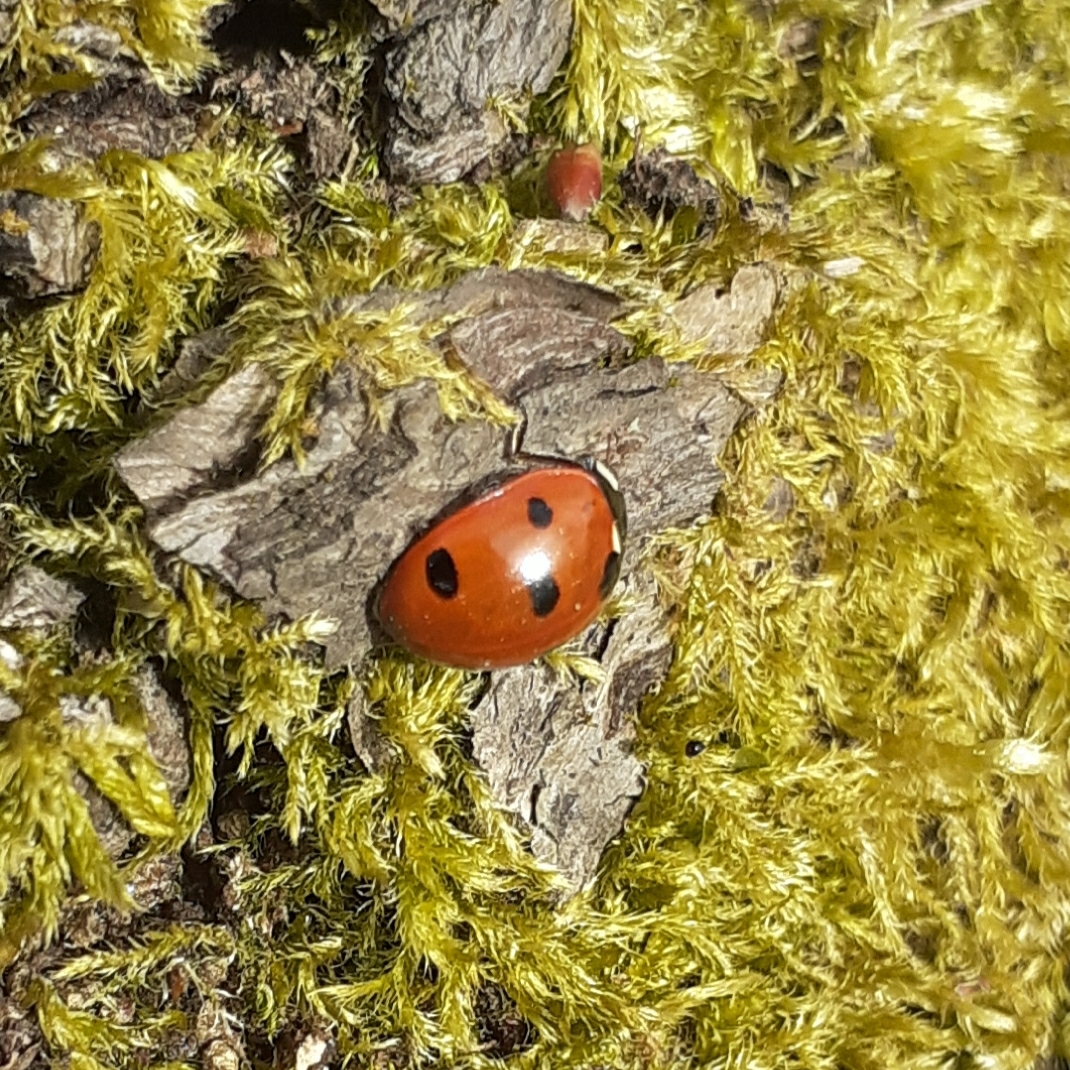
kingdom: Animalia
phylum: Arthropoda
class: Insecta
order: Coleoptera
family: Coccinellidae
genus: Coccinella
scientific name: Coccinella septempunctata
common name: Sevenspotted lady beetle
